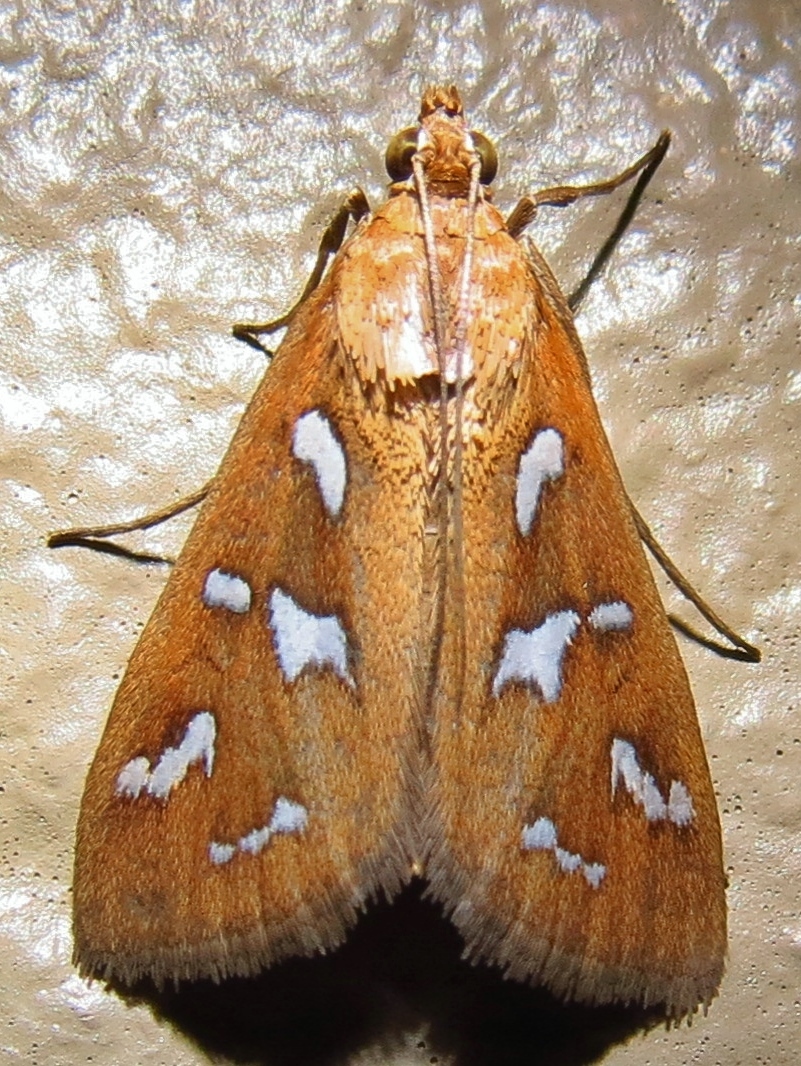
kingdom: Animalia
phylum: Arthropoda
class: Insecta
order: Lepidoptera
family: Crambidae
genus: Diastictis
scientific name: Diastictis fracturalis
